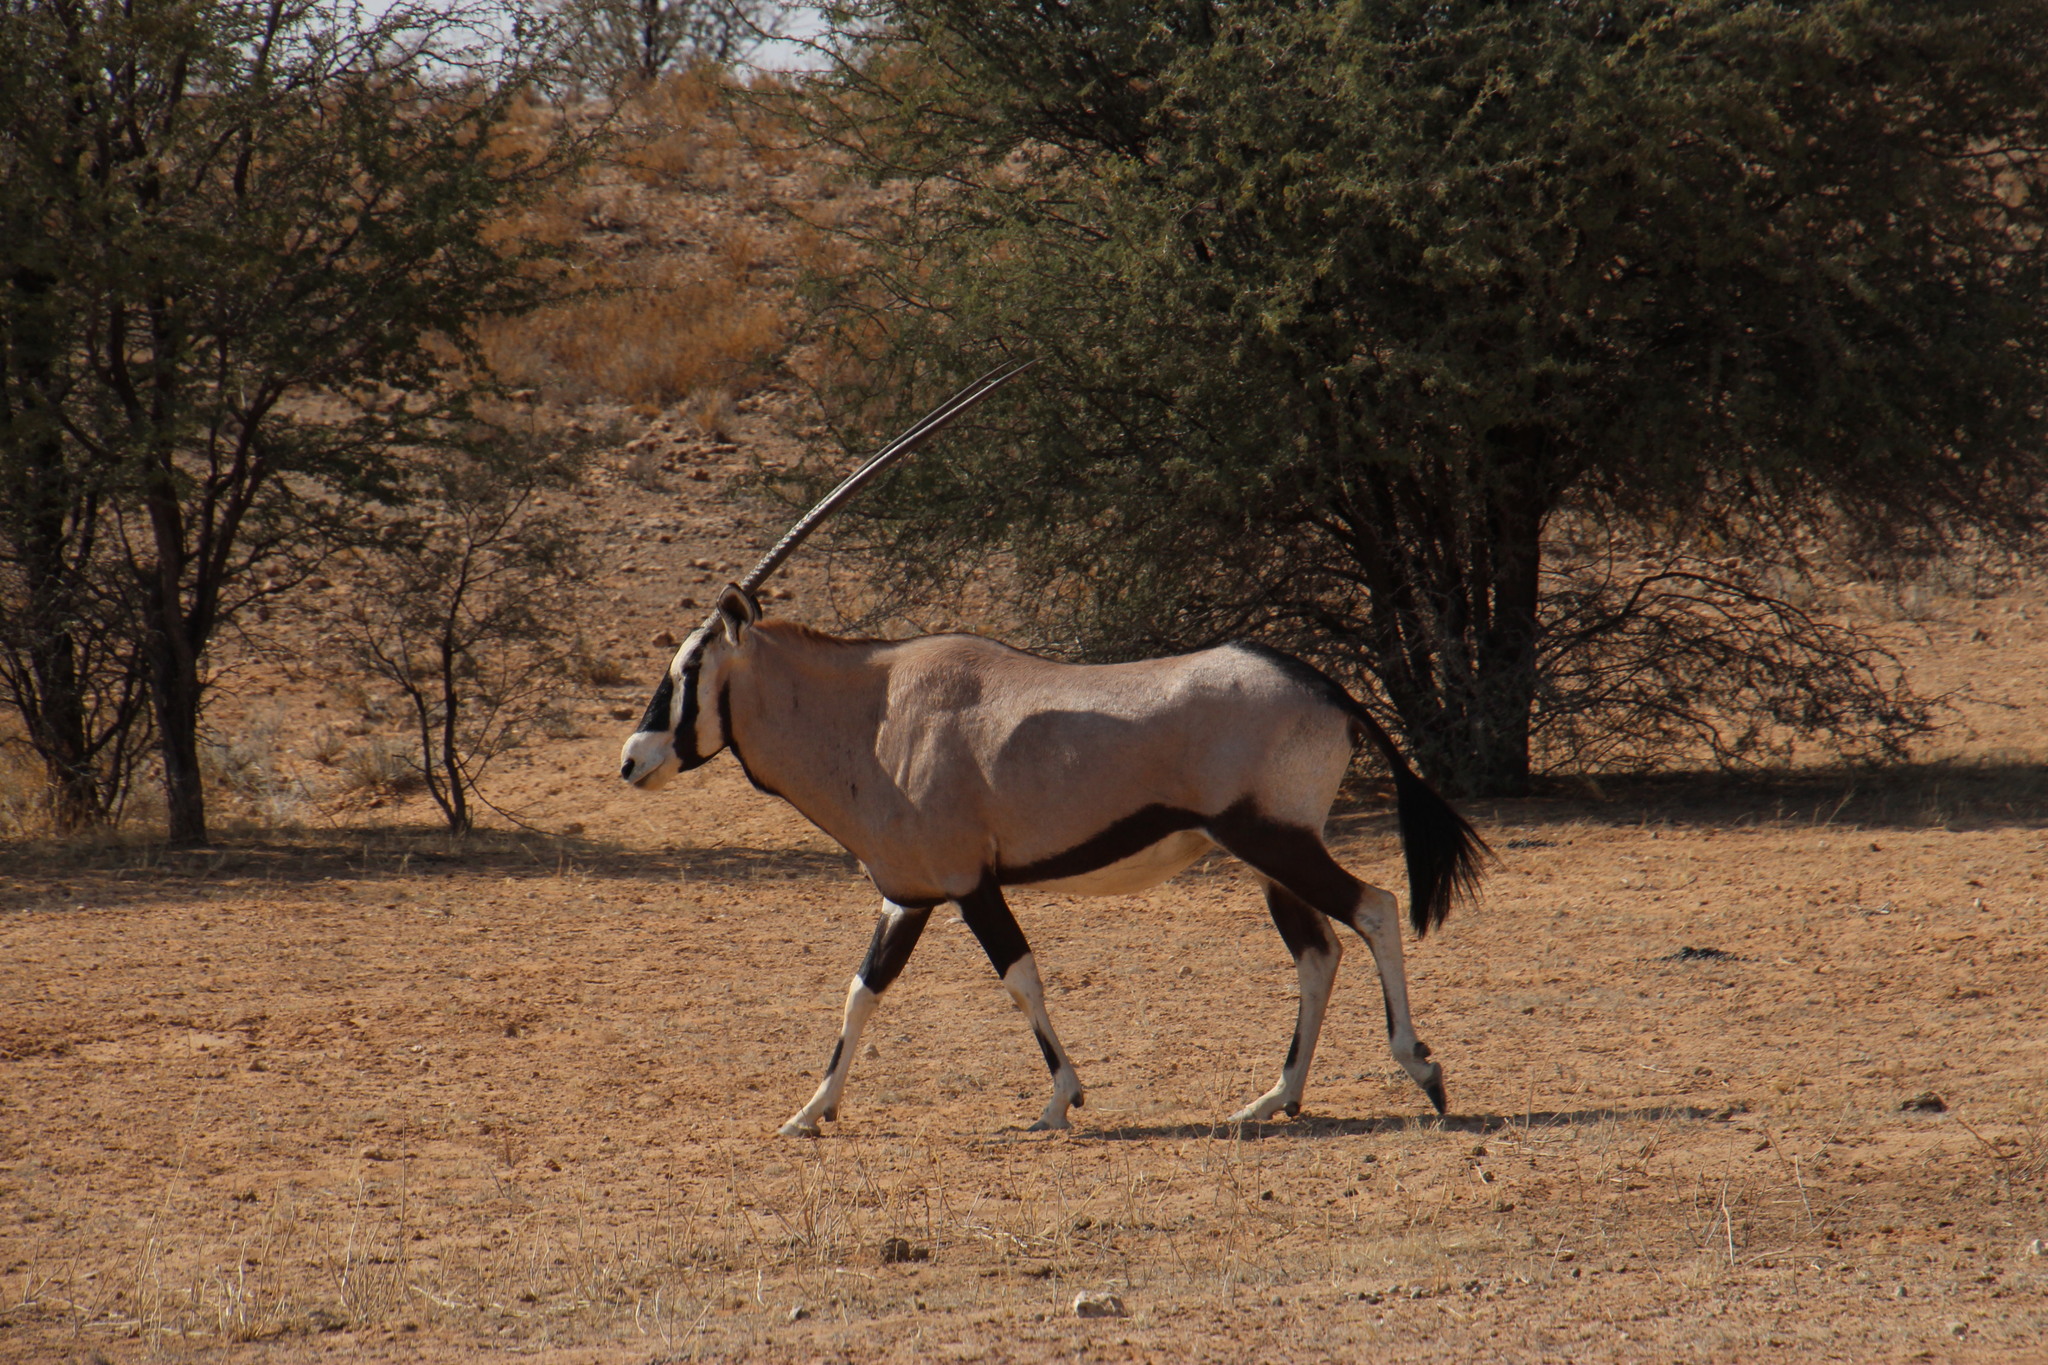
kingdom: Animalia
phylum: Chordata
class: Mammalia
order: Artiodactyla
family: Bovidae
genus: Oryx
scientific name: Oryx gazella
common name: Gemsbok
